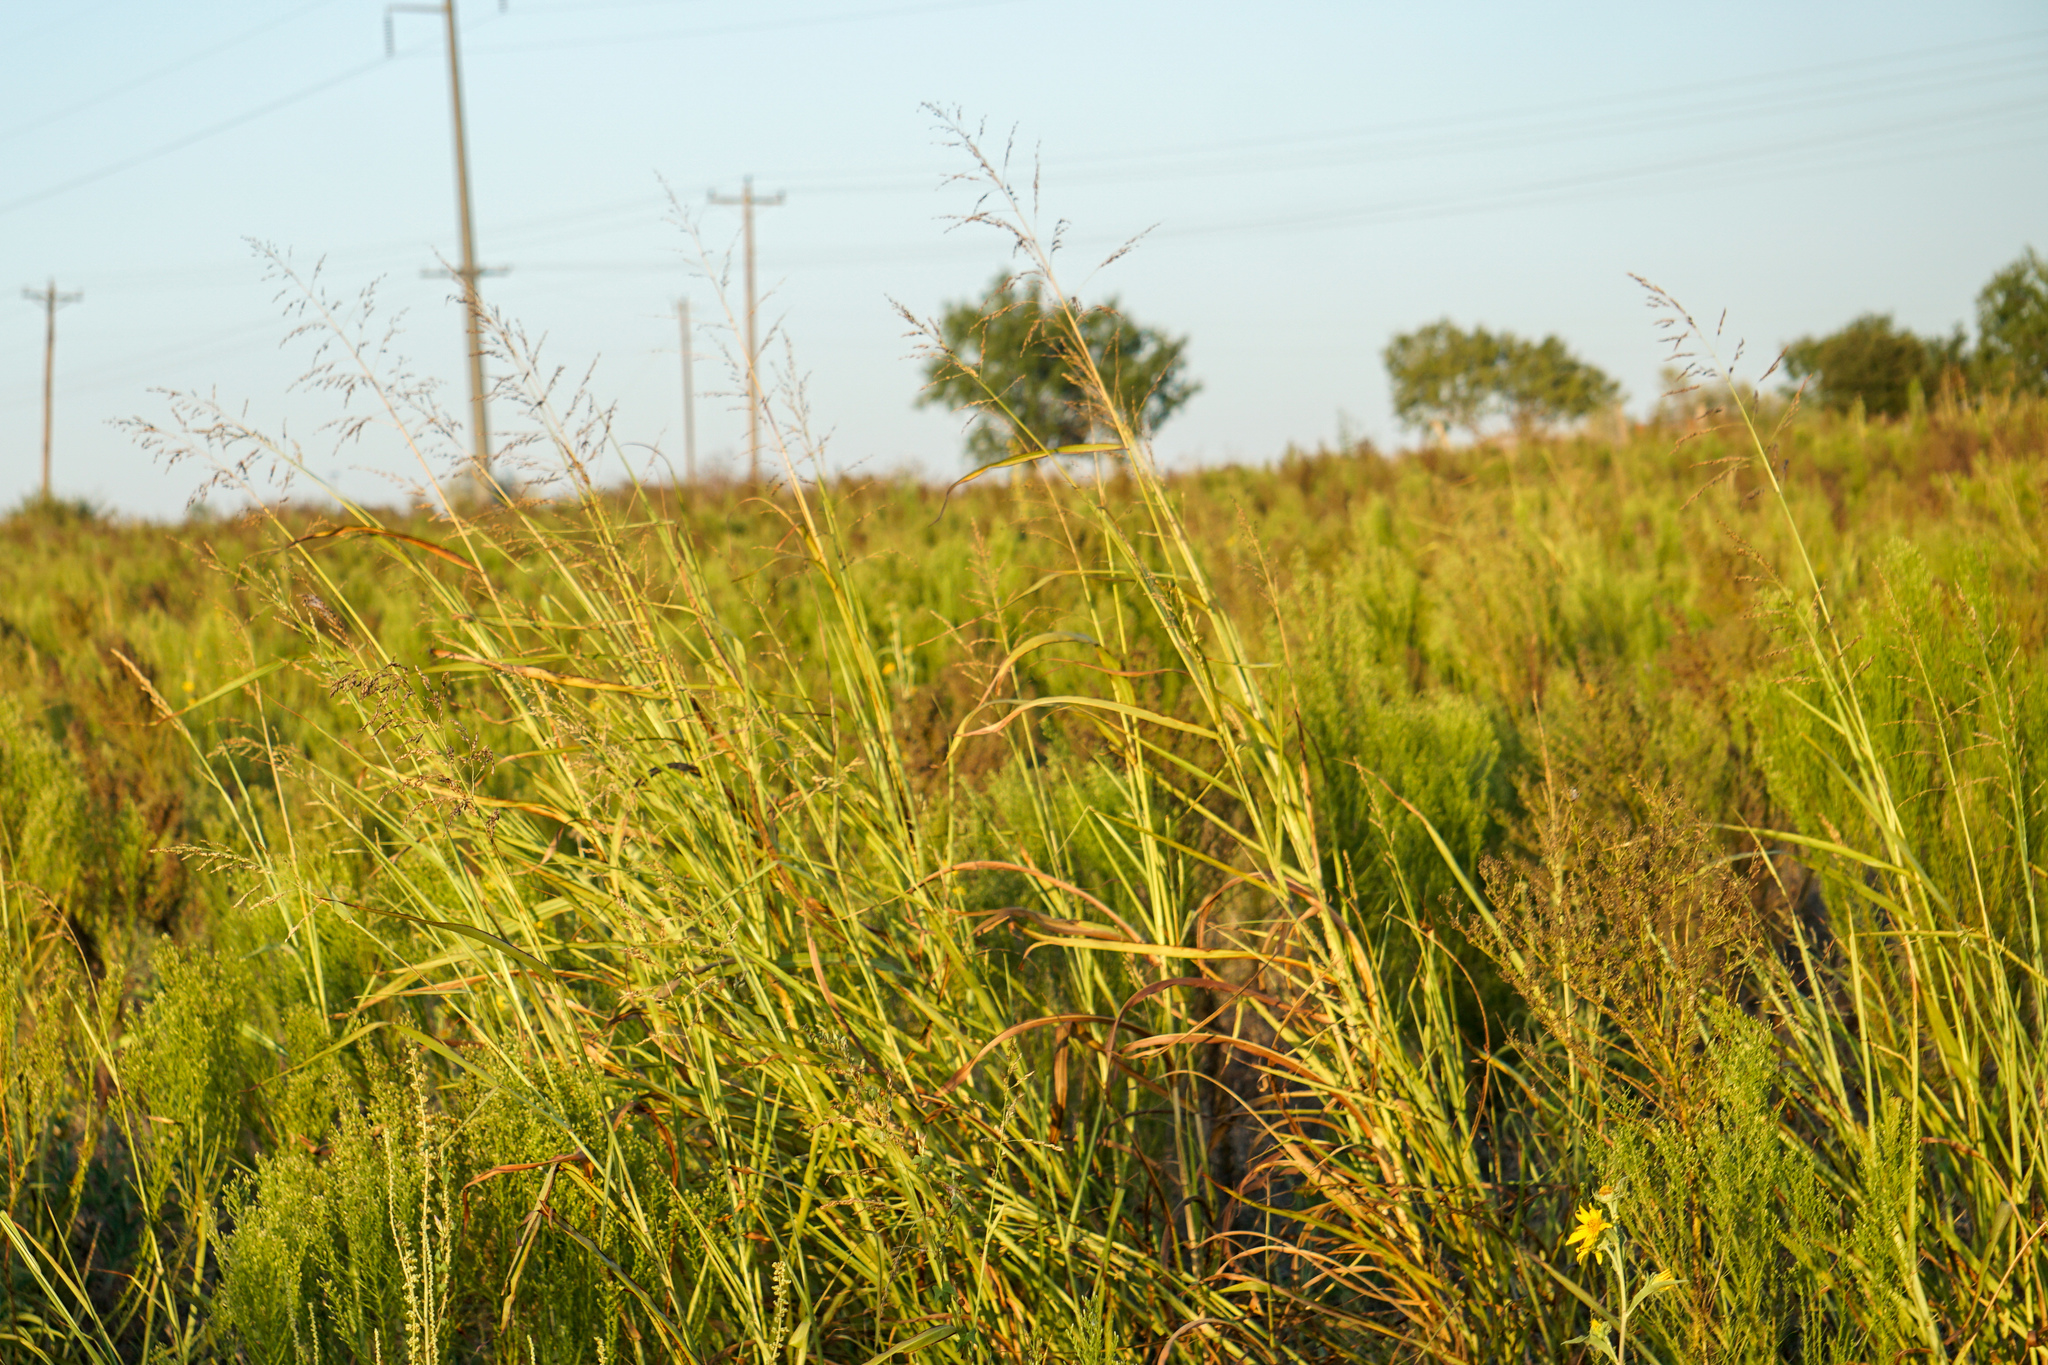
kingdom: Plantae
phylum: Tracheophyta
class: Liliopsida
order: Poales
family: Poaceae
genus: Sorghum
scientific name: Sorghum halepense
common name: Johnson-grass
